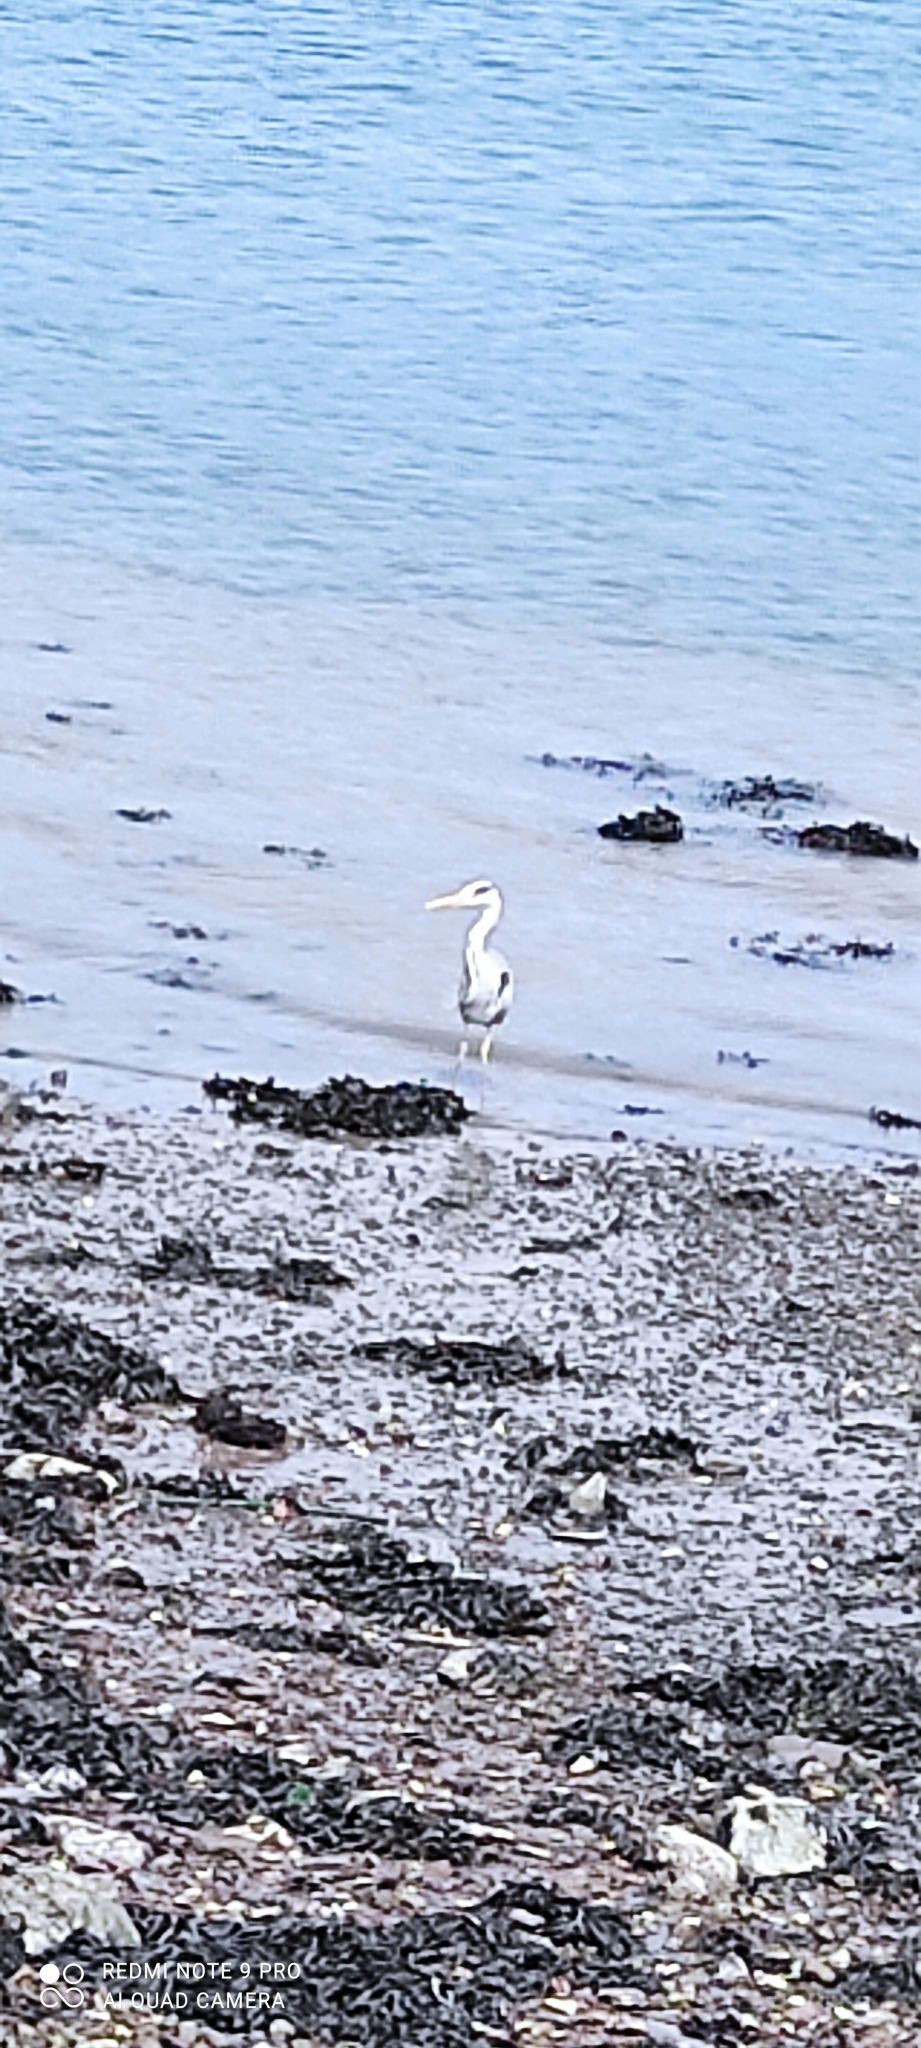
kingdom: Animalia
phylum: Chordata
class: Aves
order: Pelecaniformes
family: Ardeidae
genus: Ardea
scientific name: Ardea cinerea
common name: Grey heron
